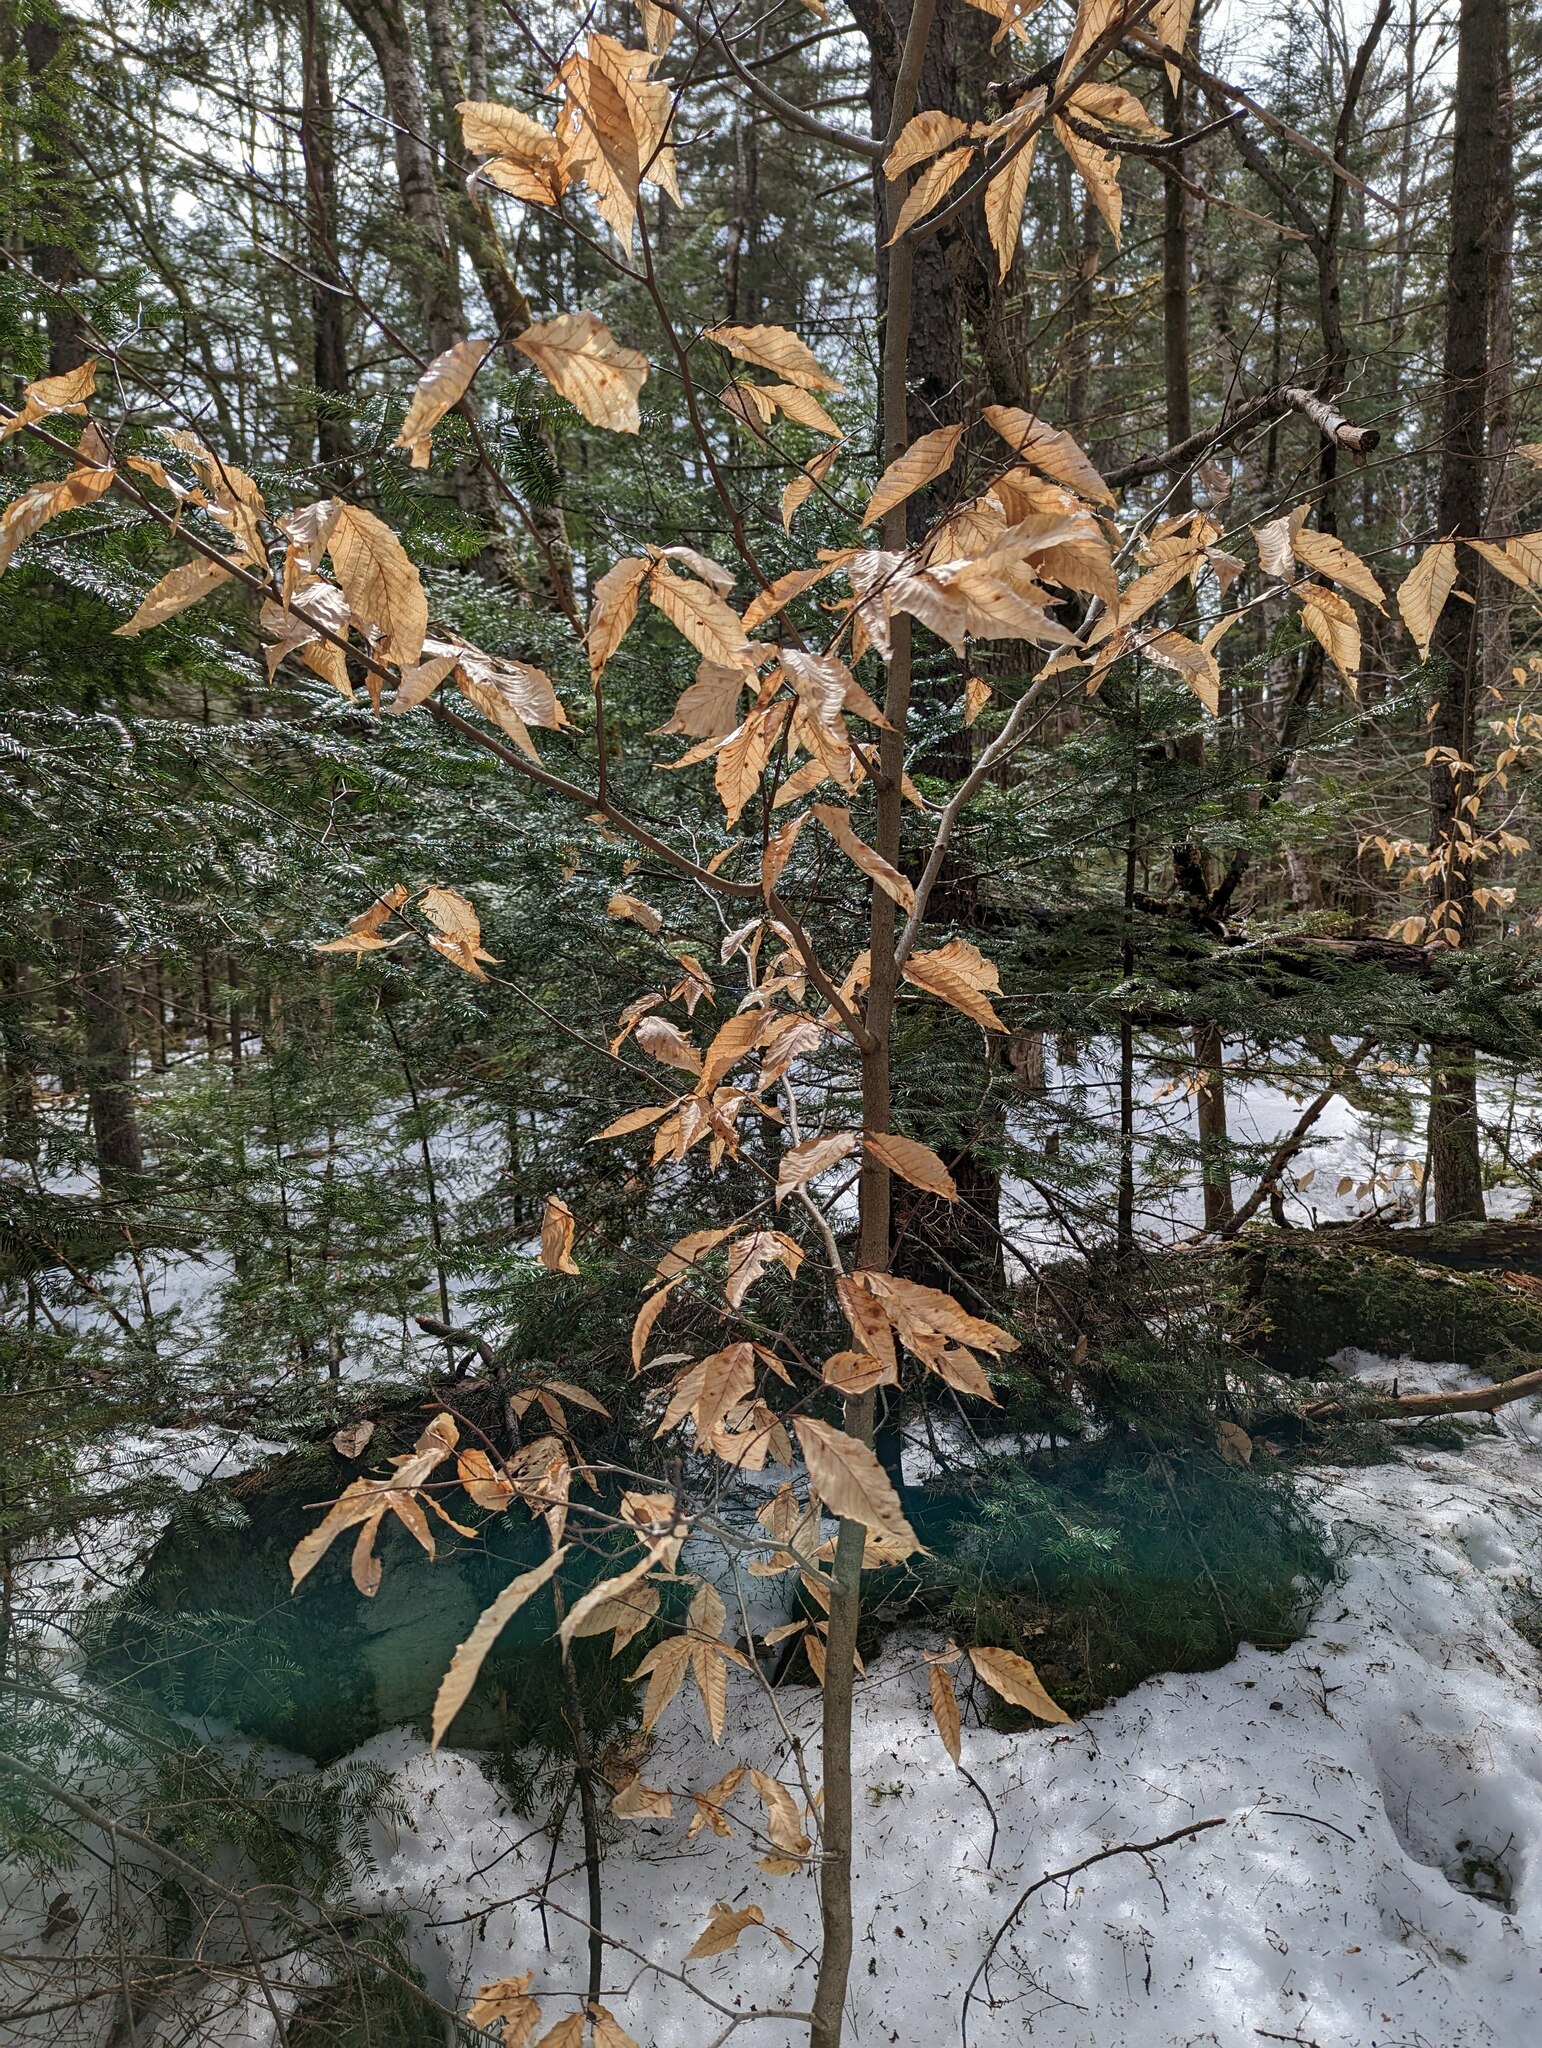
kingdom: Plantae
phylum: Tracheophyta
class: Magnoliopsida
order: Fagales
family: Fagaceae
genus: Fagus
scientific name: Fagus grandifolia
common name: American beech
